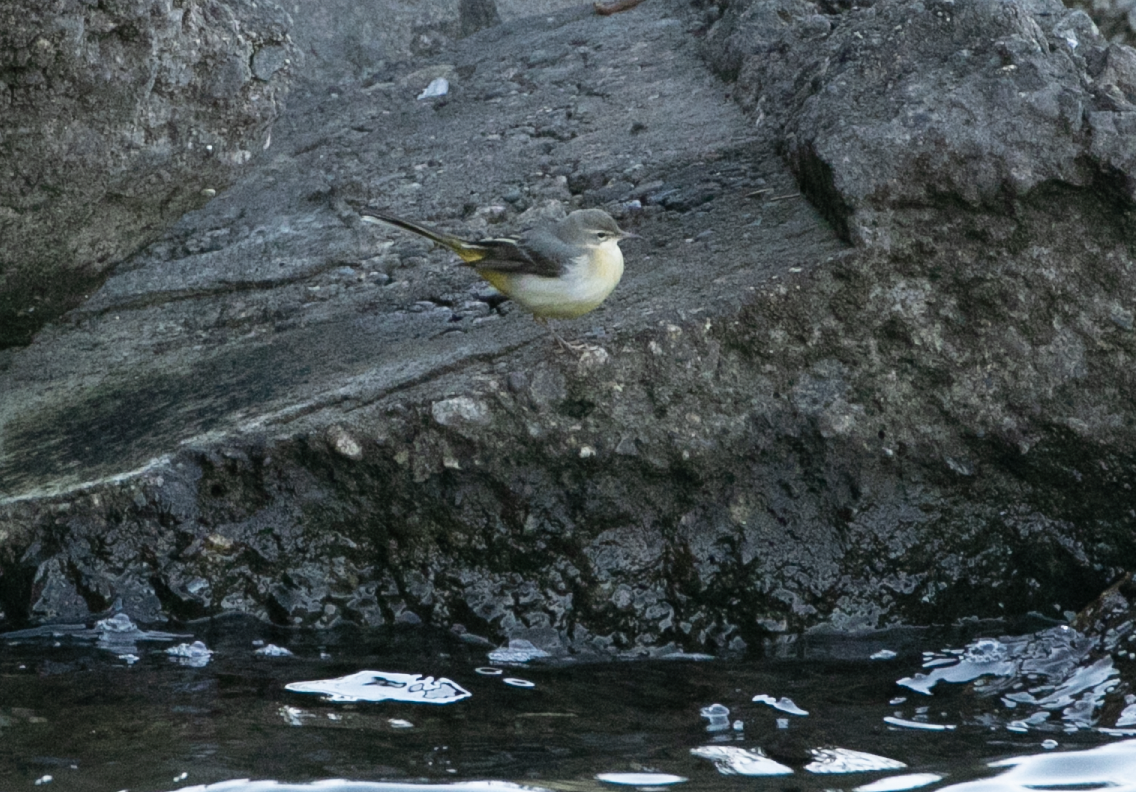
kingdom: Animalia
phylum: Chordata
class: Aves
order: Passeriformes
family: Motacillidae
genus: Motacilla
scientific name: Motacilla cinerea
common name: Grey wagtail
